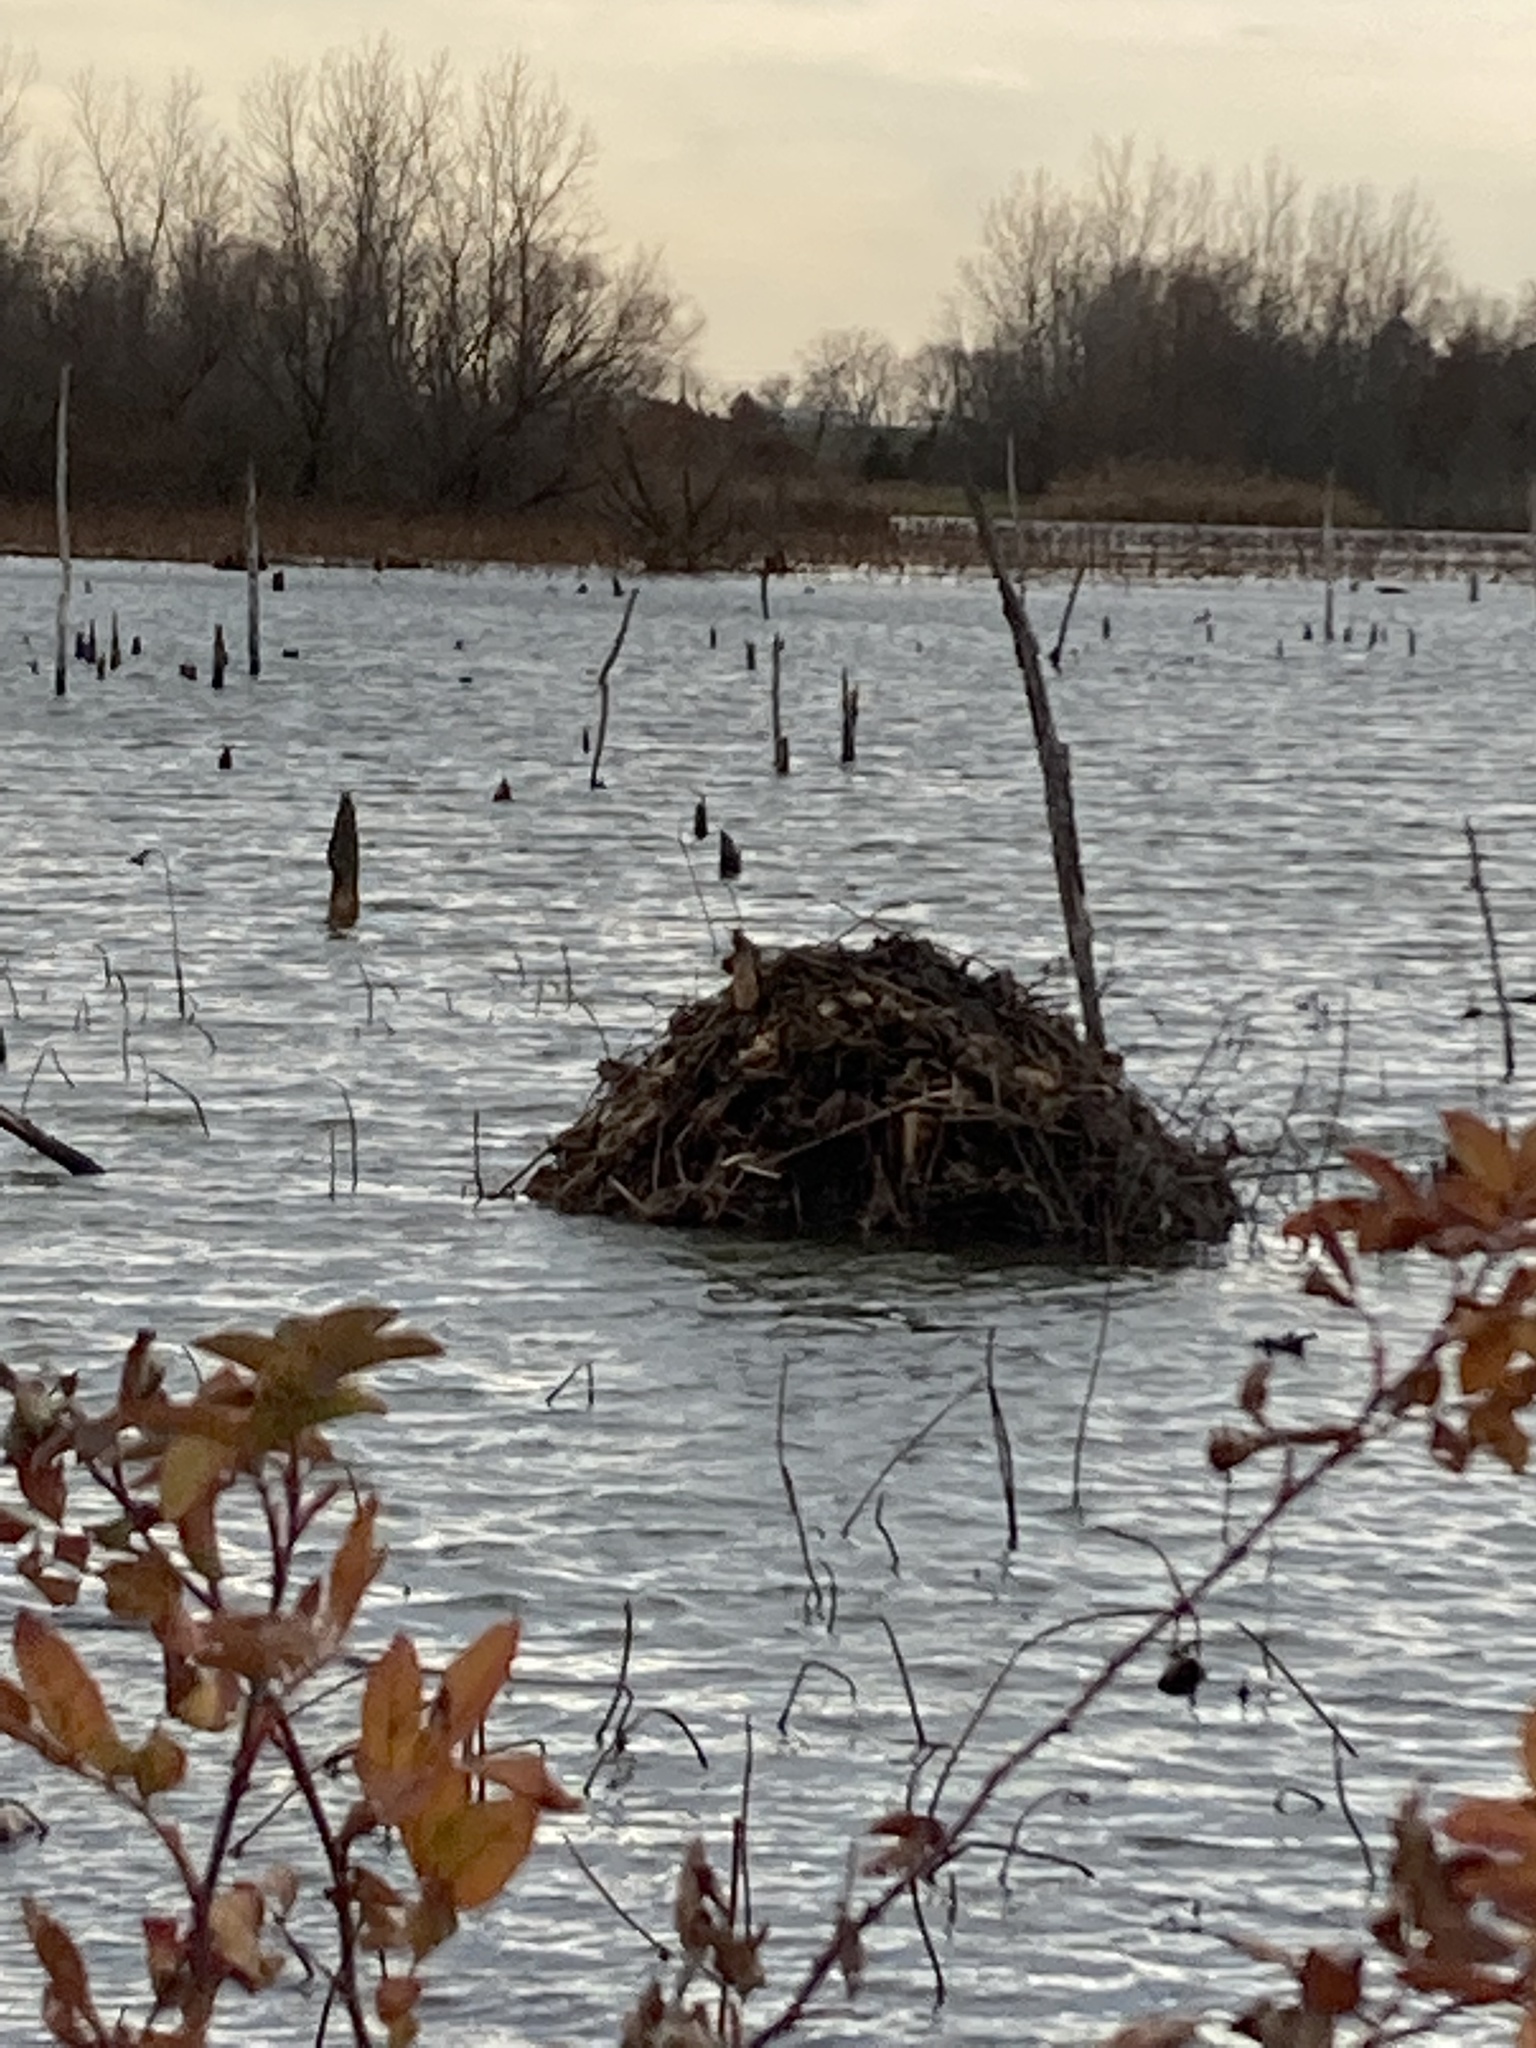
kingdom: Animalia
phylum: Chordata
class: Mammalia
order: Rodentia
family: Cricetidae
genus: Ondatra
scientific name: Ondatra zibethicus
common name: Muskrat
